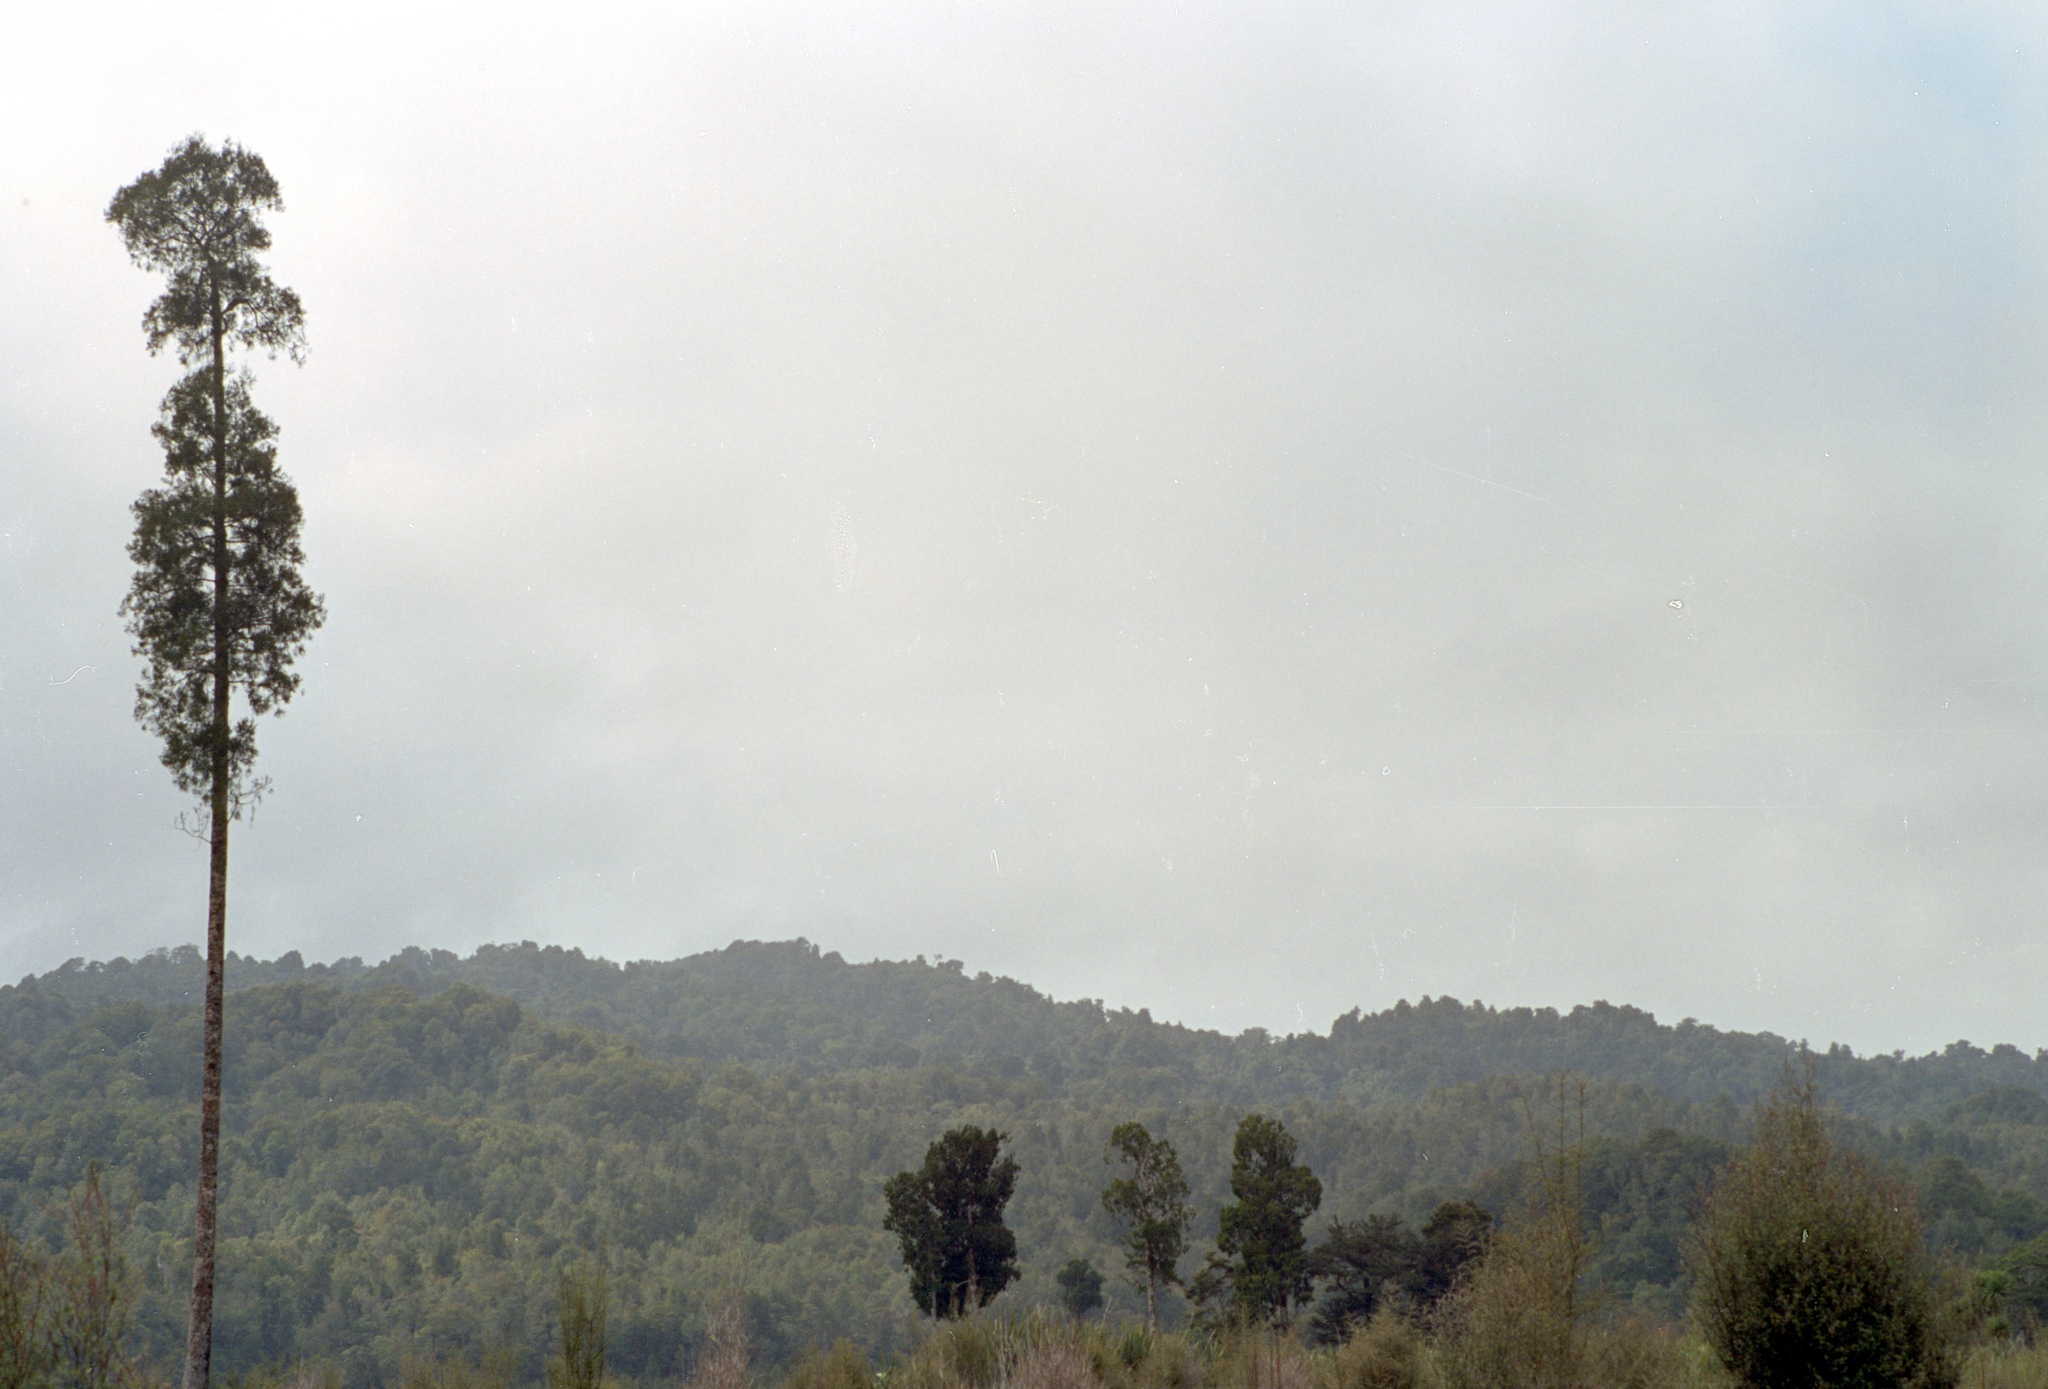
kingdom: Plantae
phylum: Tracheophyta
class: Pinopsida
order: Pinales
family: Podocarpaceae
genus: Dacrycarpus
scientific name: Dacrycarpus dacrydioides
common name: White pine
